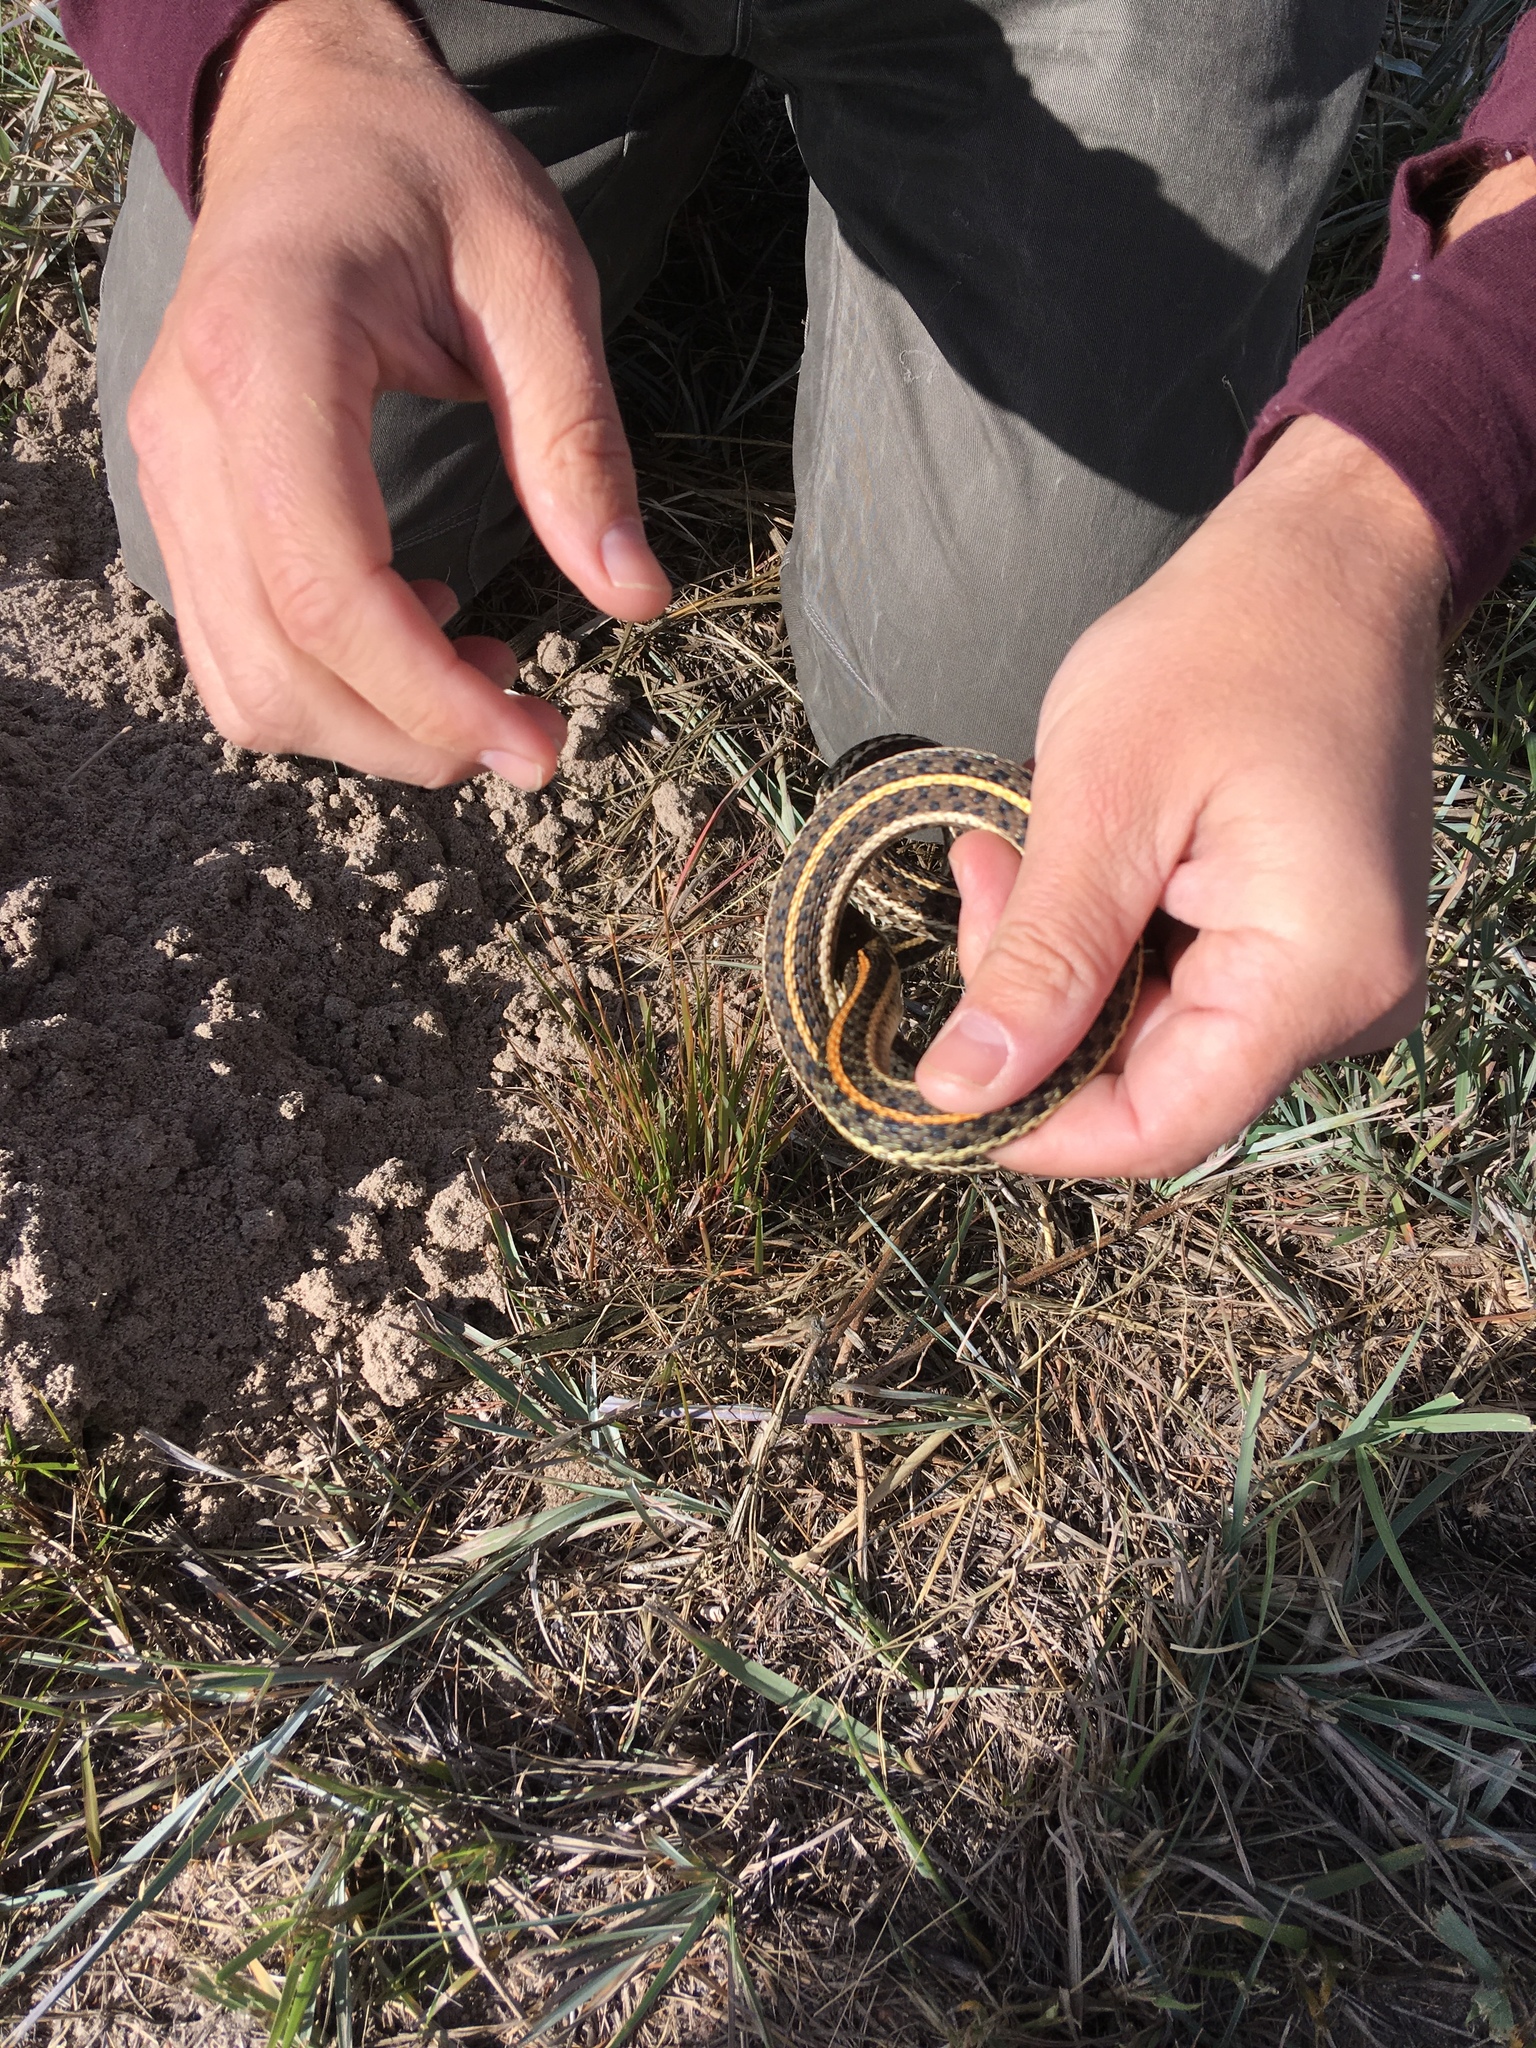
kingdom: Animalia
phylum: Chordata
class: Squamata
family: Colubridae
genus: Thamnophis
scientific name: Thamnophis radix
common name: Plains garter snake
